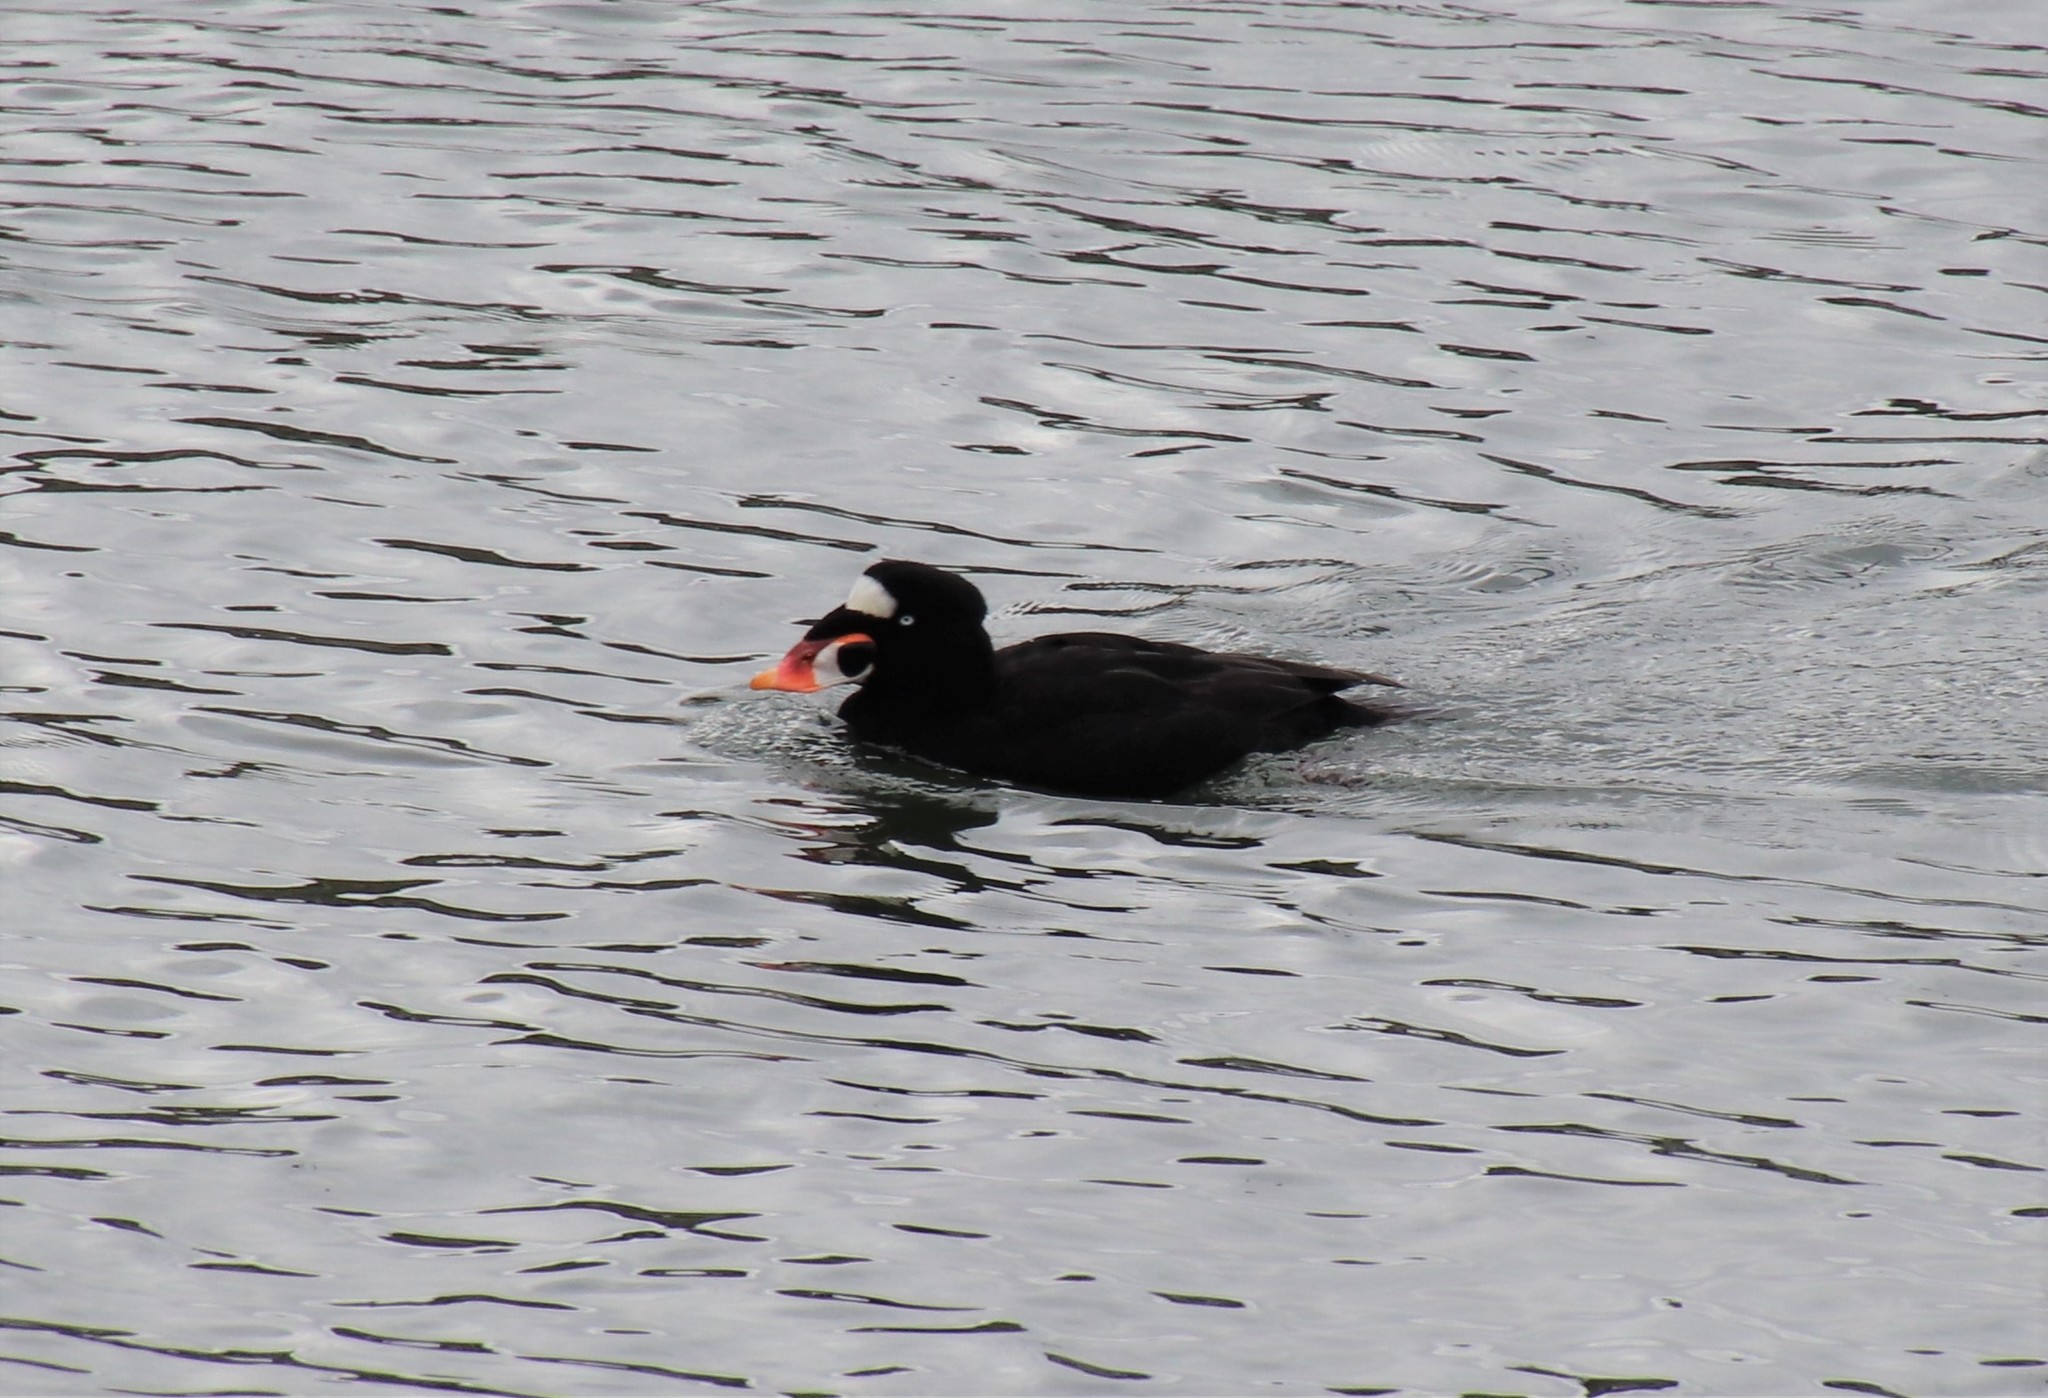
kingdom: Animalia
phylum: Chordata
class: Aves
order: Anseriformes
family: Anatidae
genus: Melanitta
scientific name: Melanitta perspicillata
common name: Surf scoter
